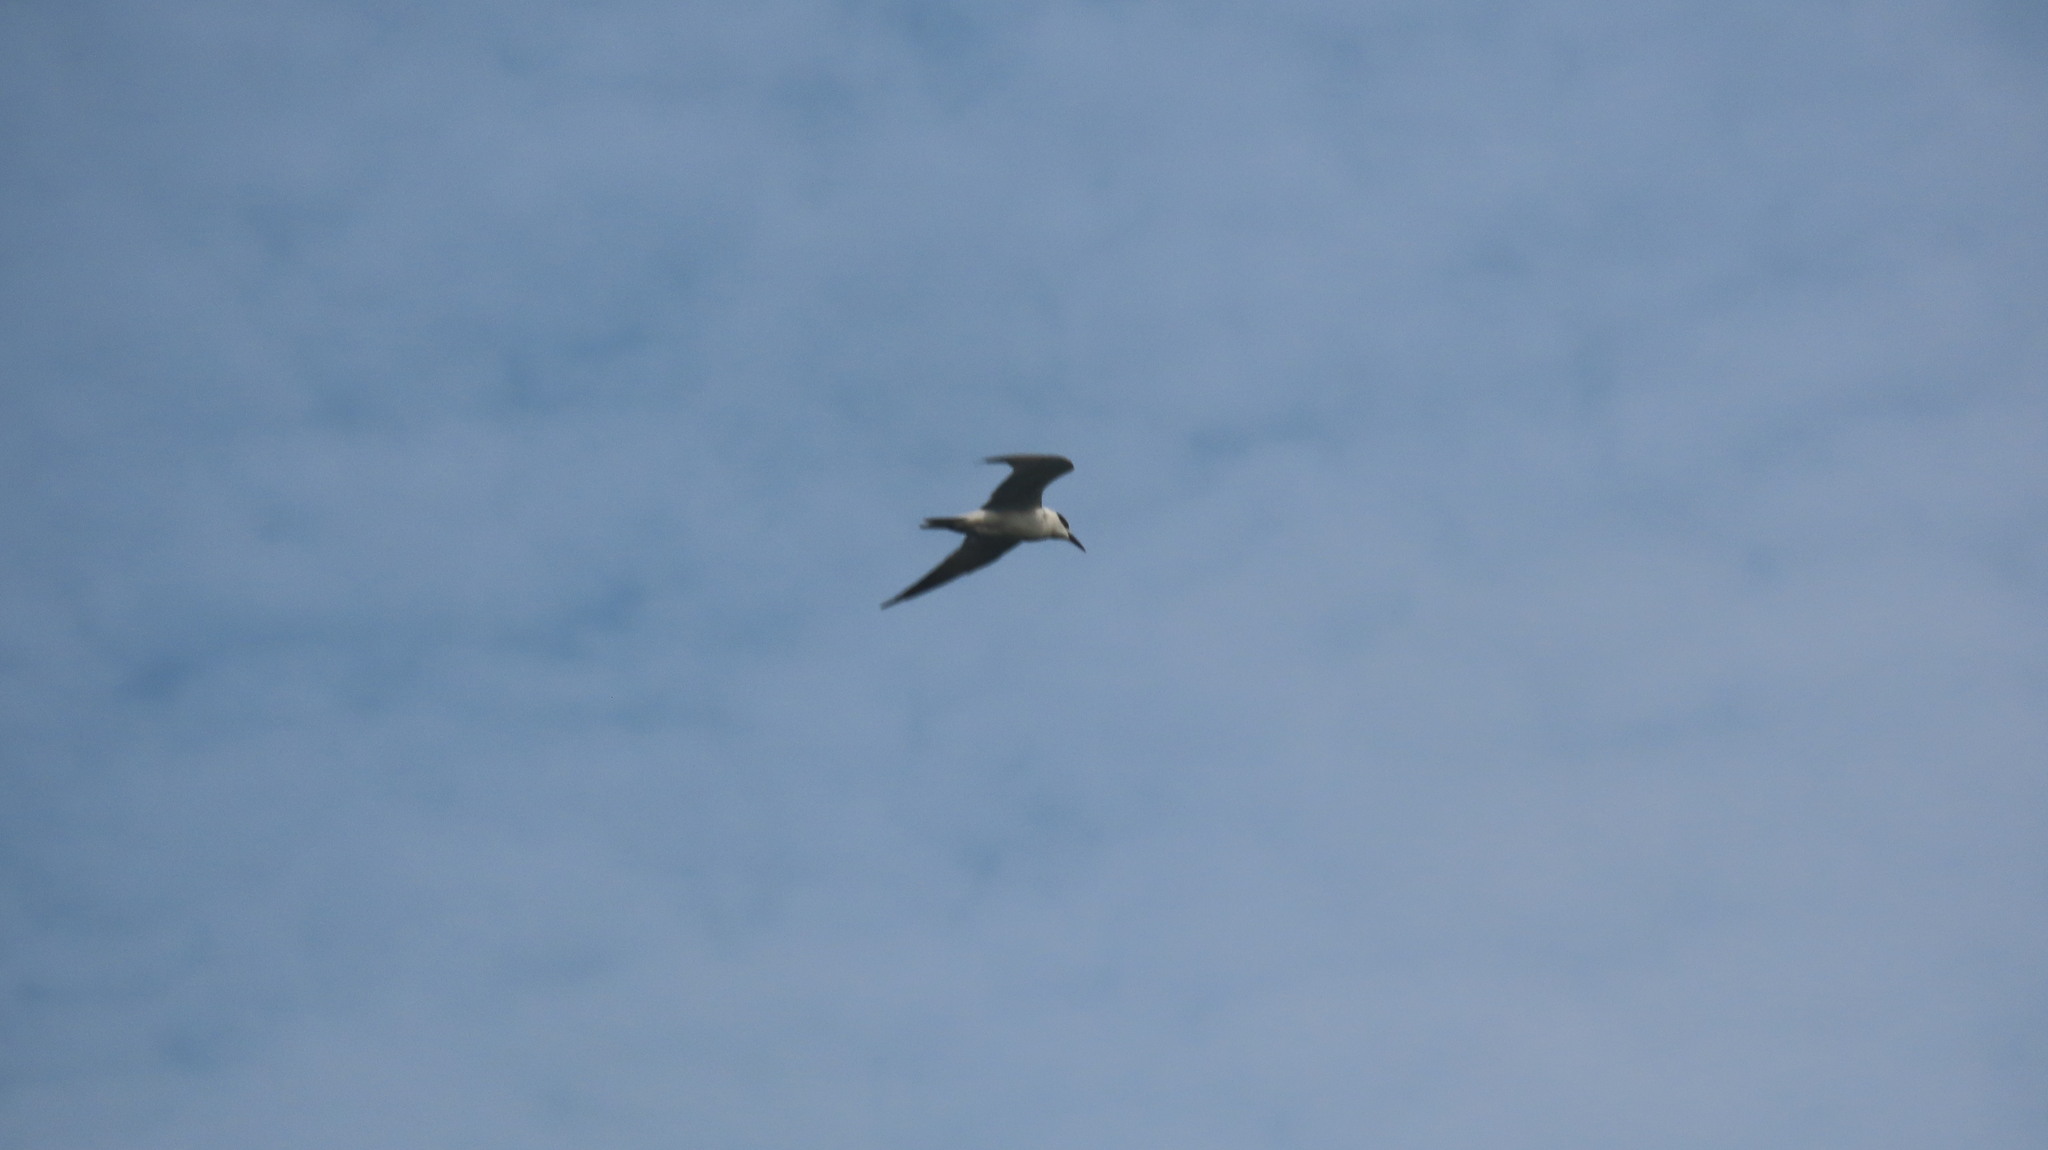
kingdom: Animalia
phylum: Chordata
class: Aves
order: Charadriiformes
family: Laridae
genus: Chlidonias
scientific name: Chlidonias hybrida
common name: Whiskered tern
